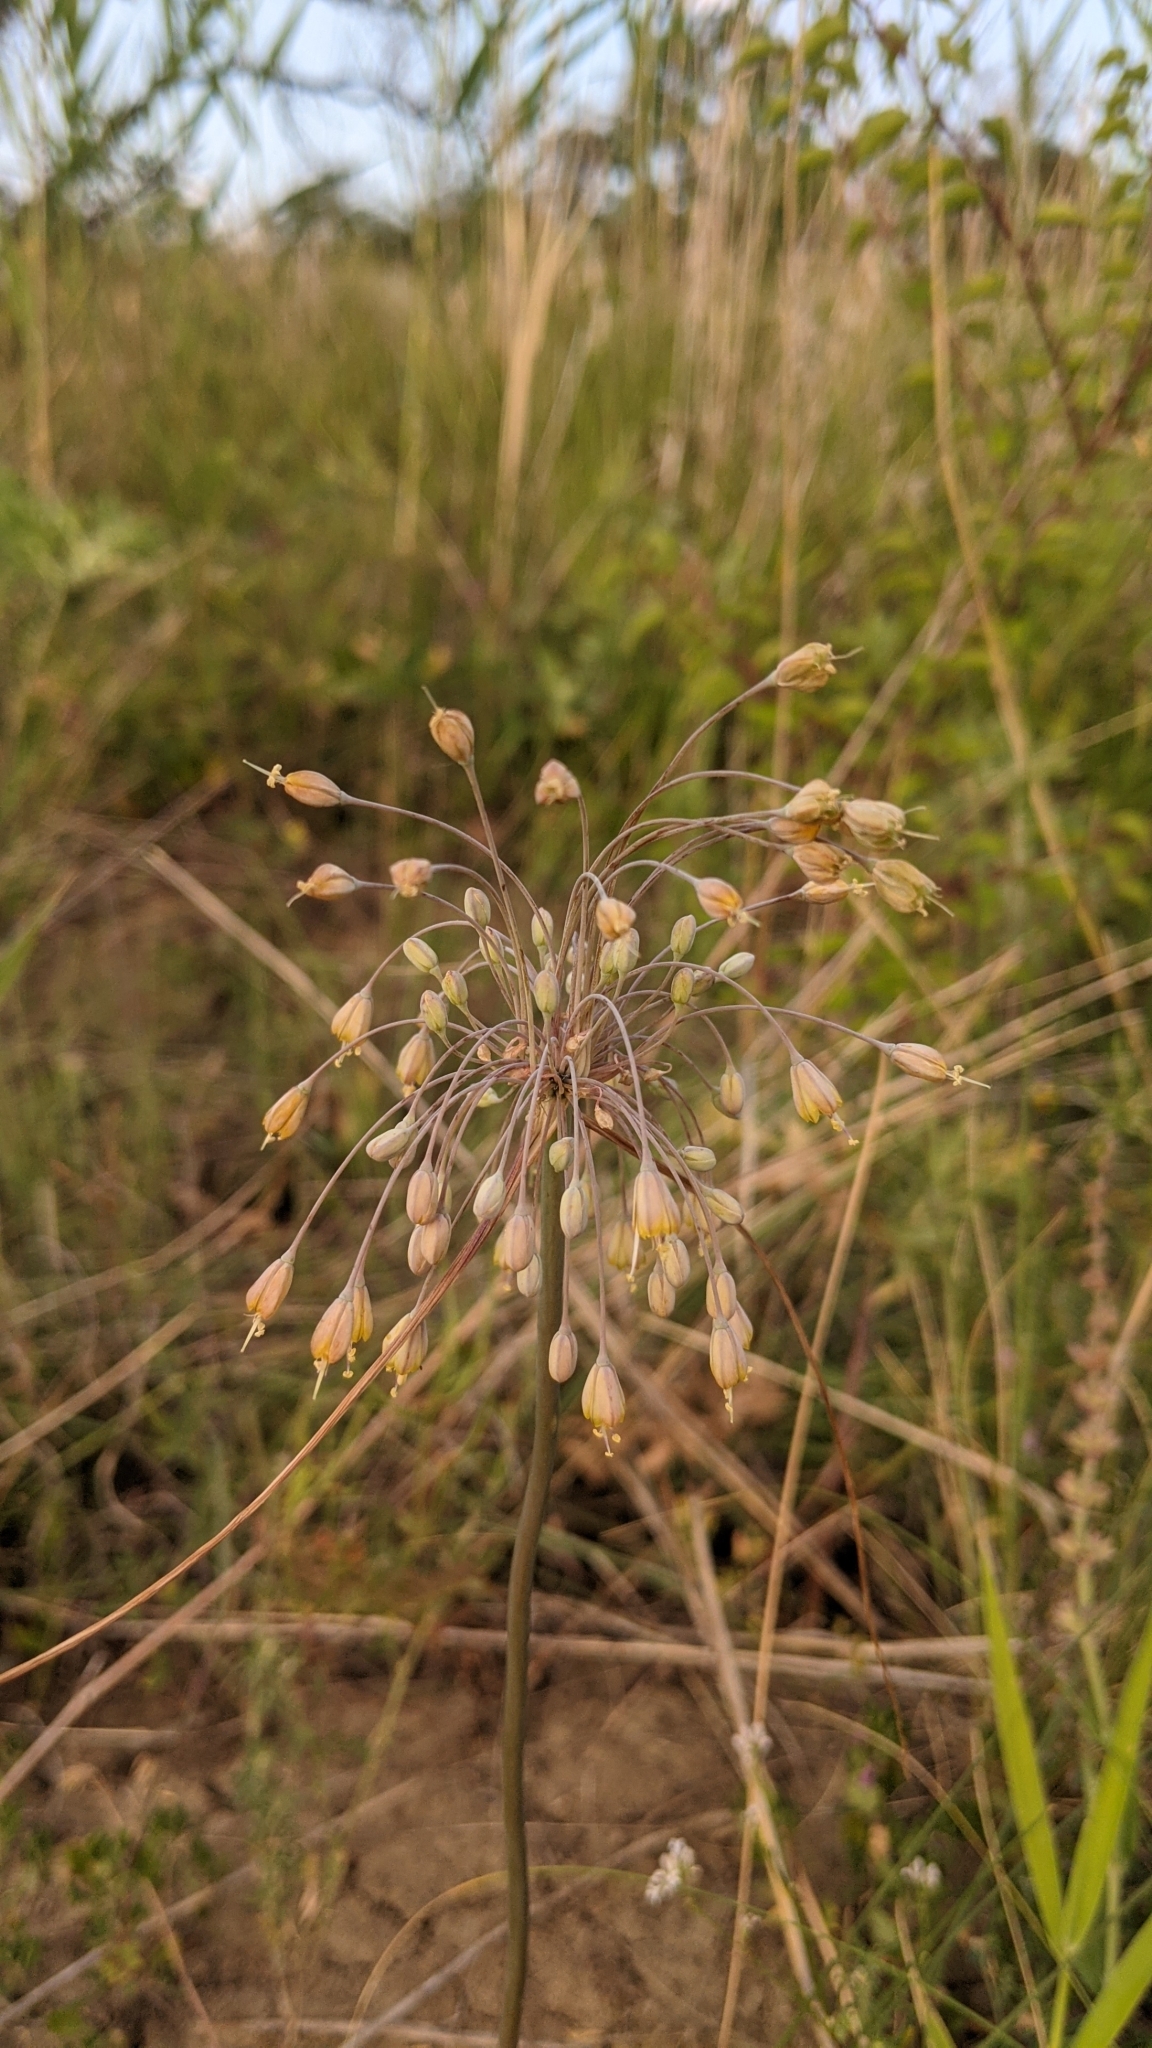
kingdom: Plantae
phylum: Tracheophyta
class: Liliopsida
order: Asparagales
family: Amaryllidaceae
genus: Allium
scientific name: Allium flavum
